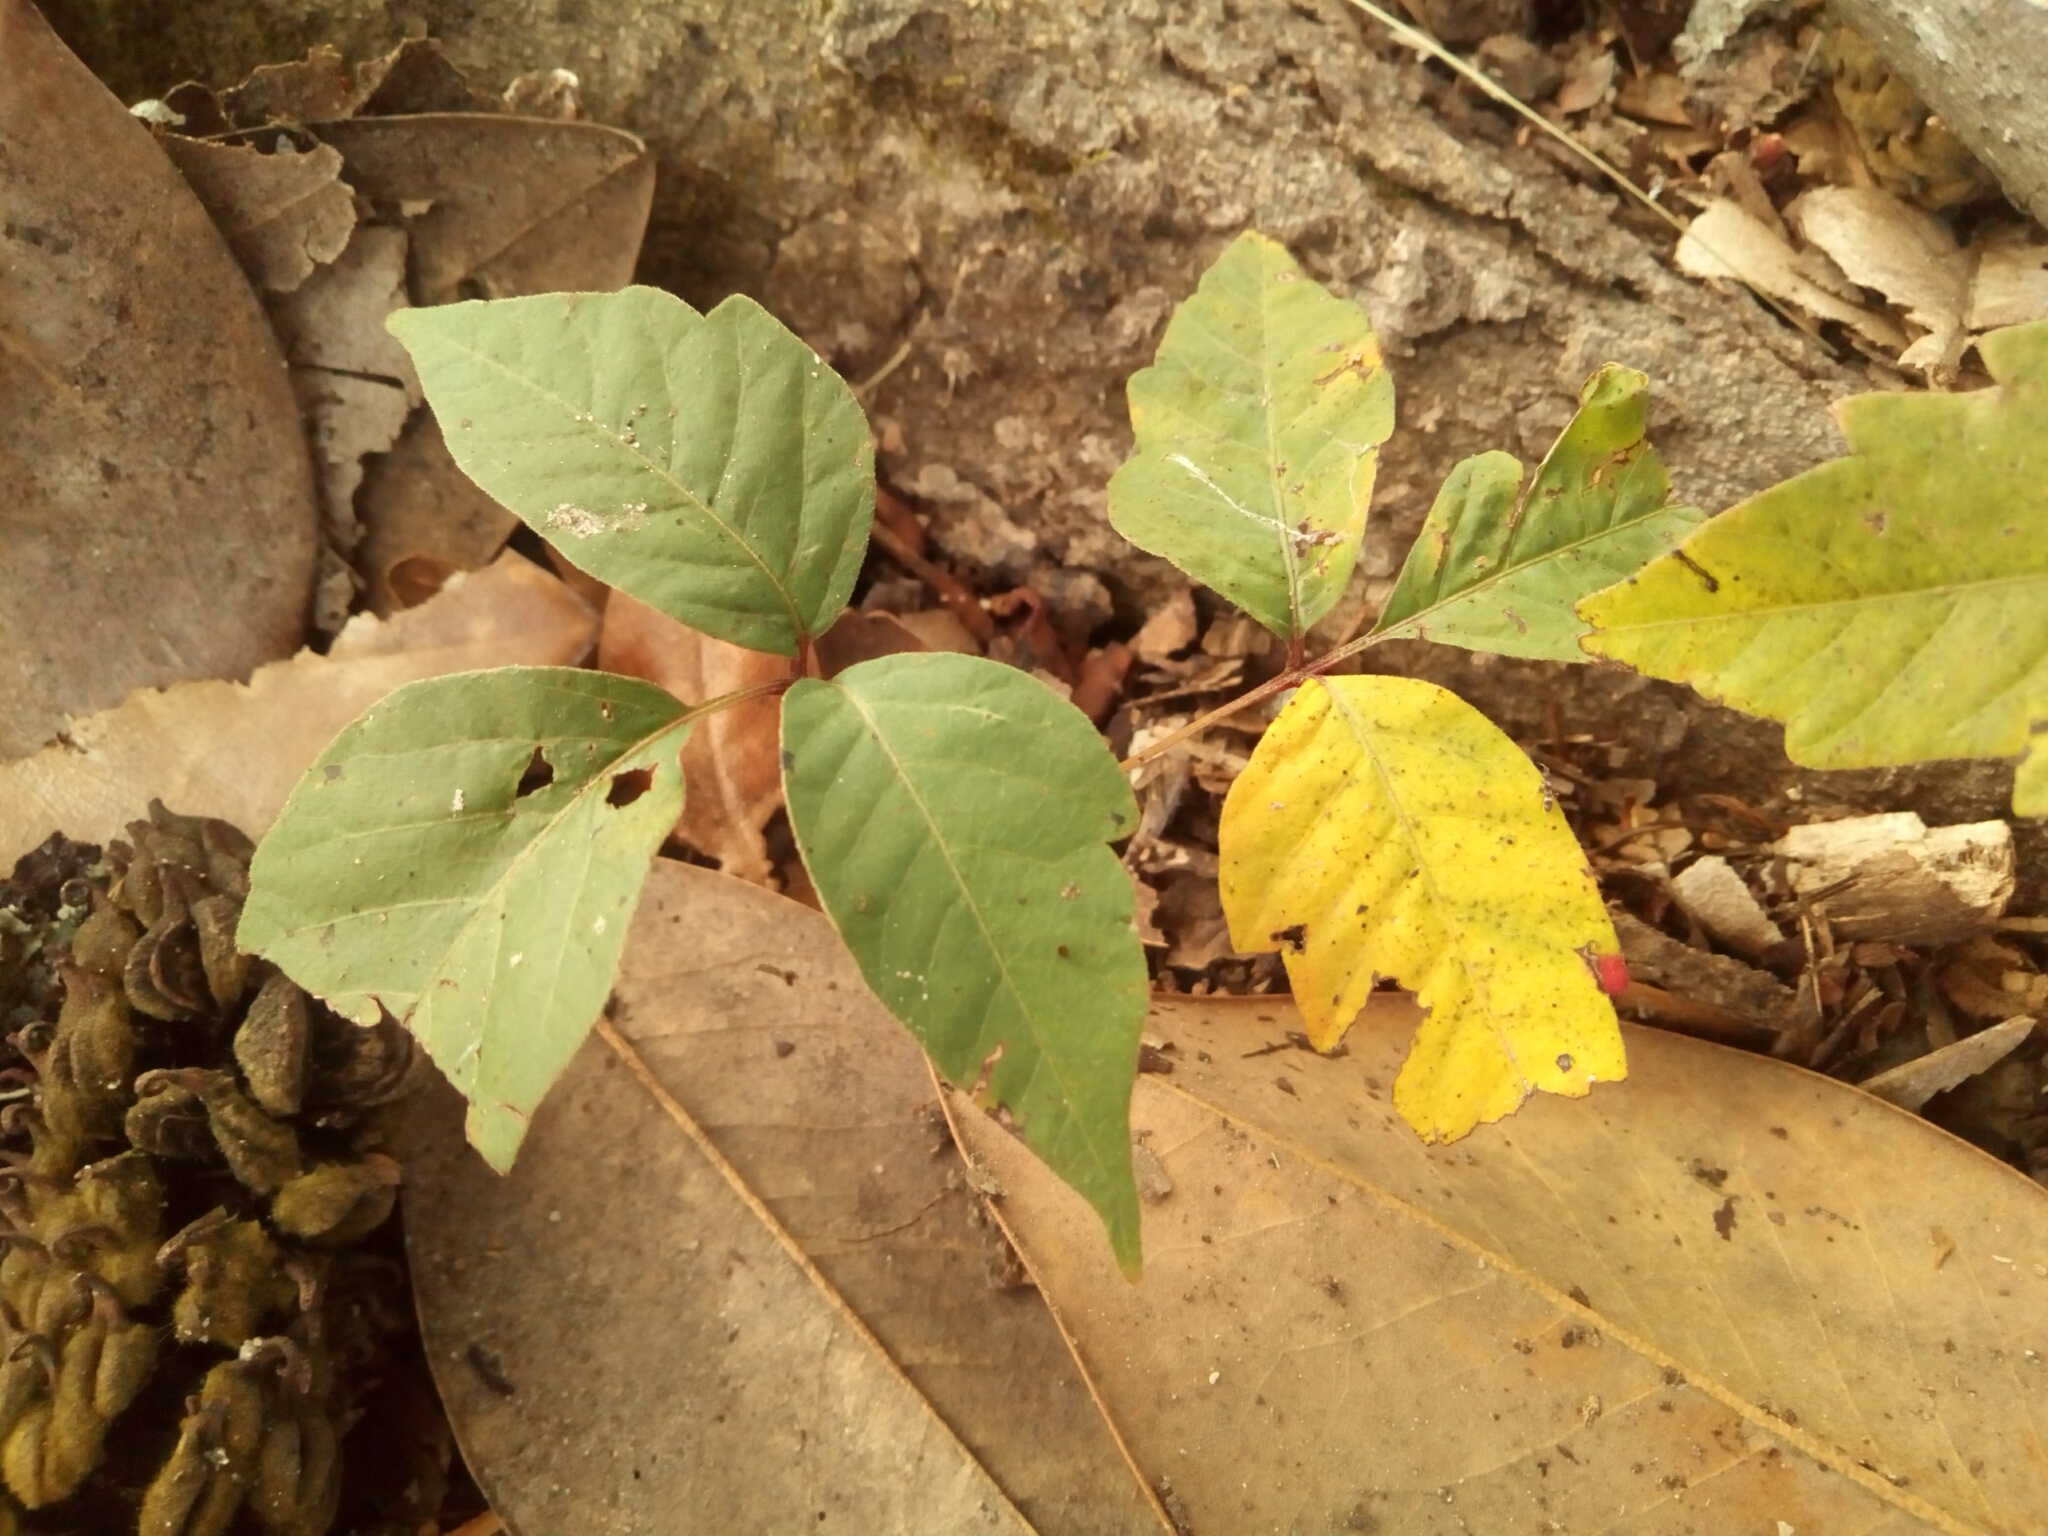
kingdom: Plantae
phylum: Tracheophyta
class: Magnoliopsida
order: Sapindales
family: Anacardiaceae
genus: Toxicodendron
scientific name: Toxicodendron radicans
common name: Poison ivy
